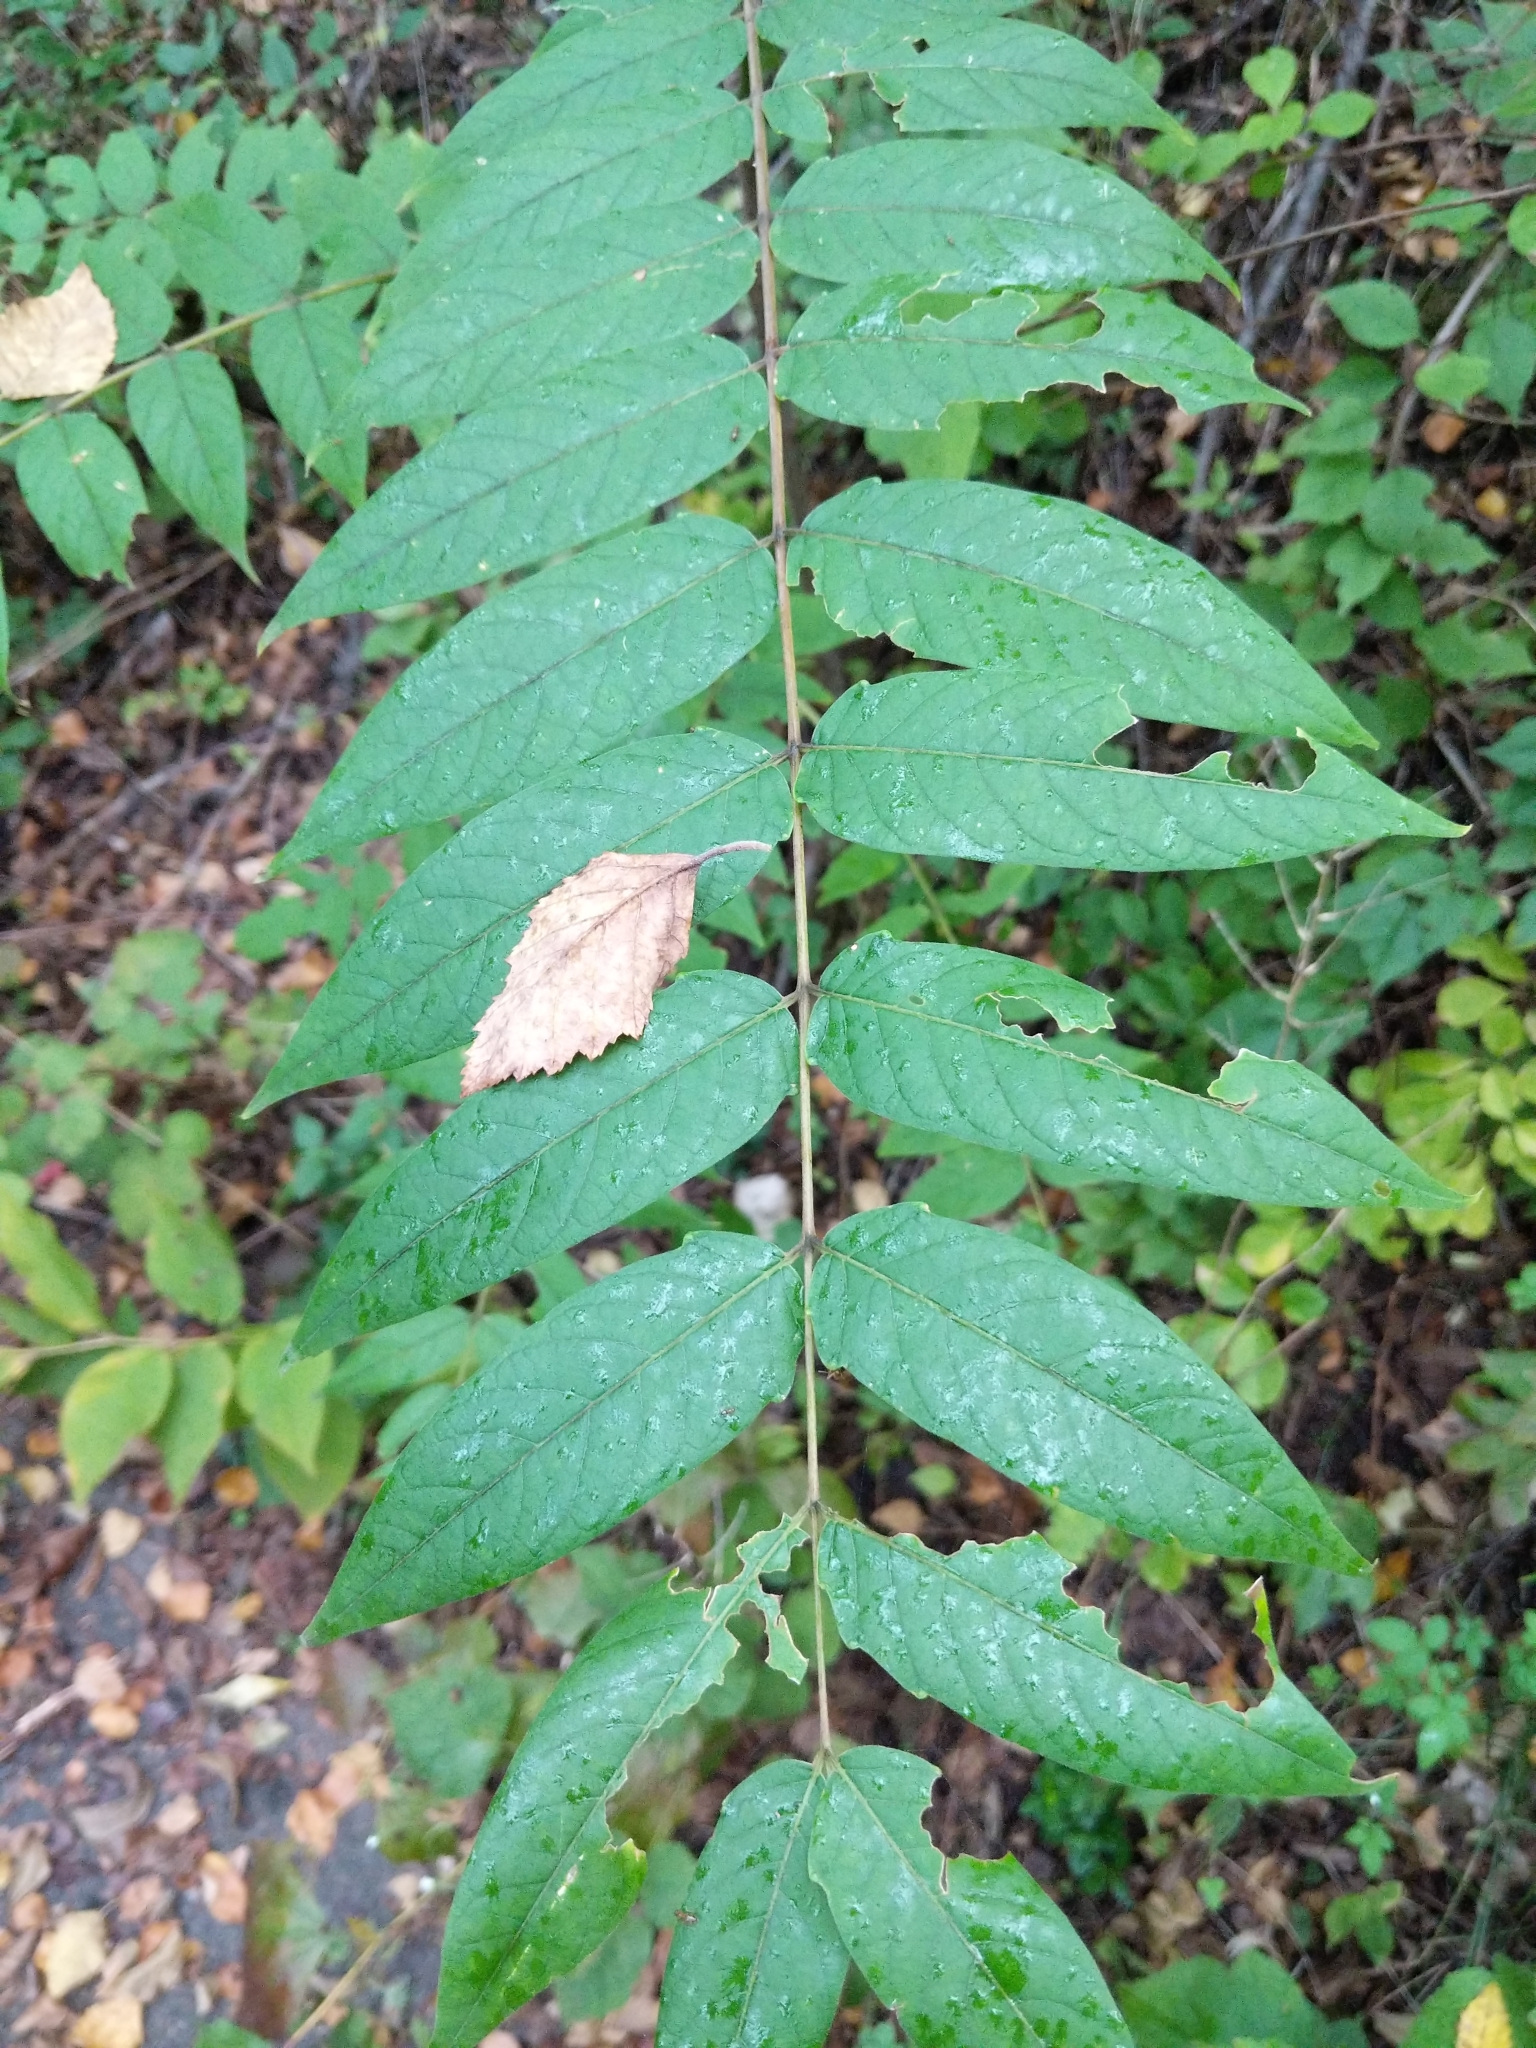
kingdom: Plantae
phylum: Tracheophyta
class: Magnoliopsida
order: Sapindales
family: Simaroubaceae
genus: Ailanthus
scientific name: Ailanthus altissima
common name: Tree-of-heaven
